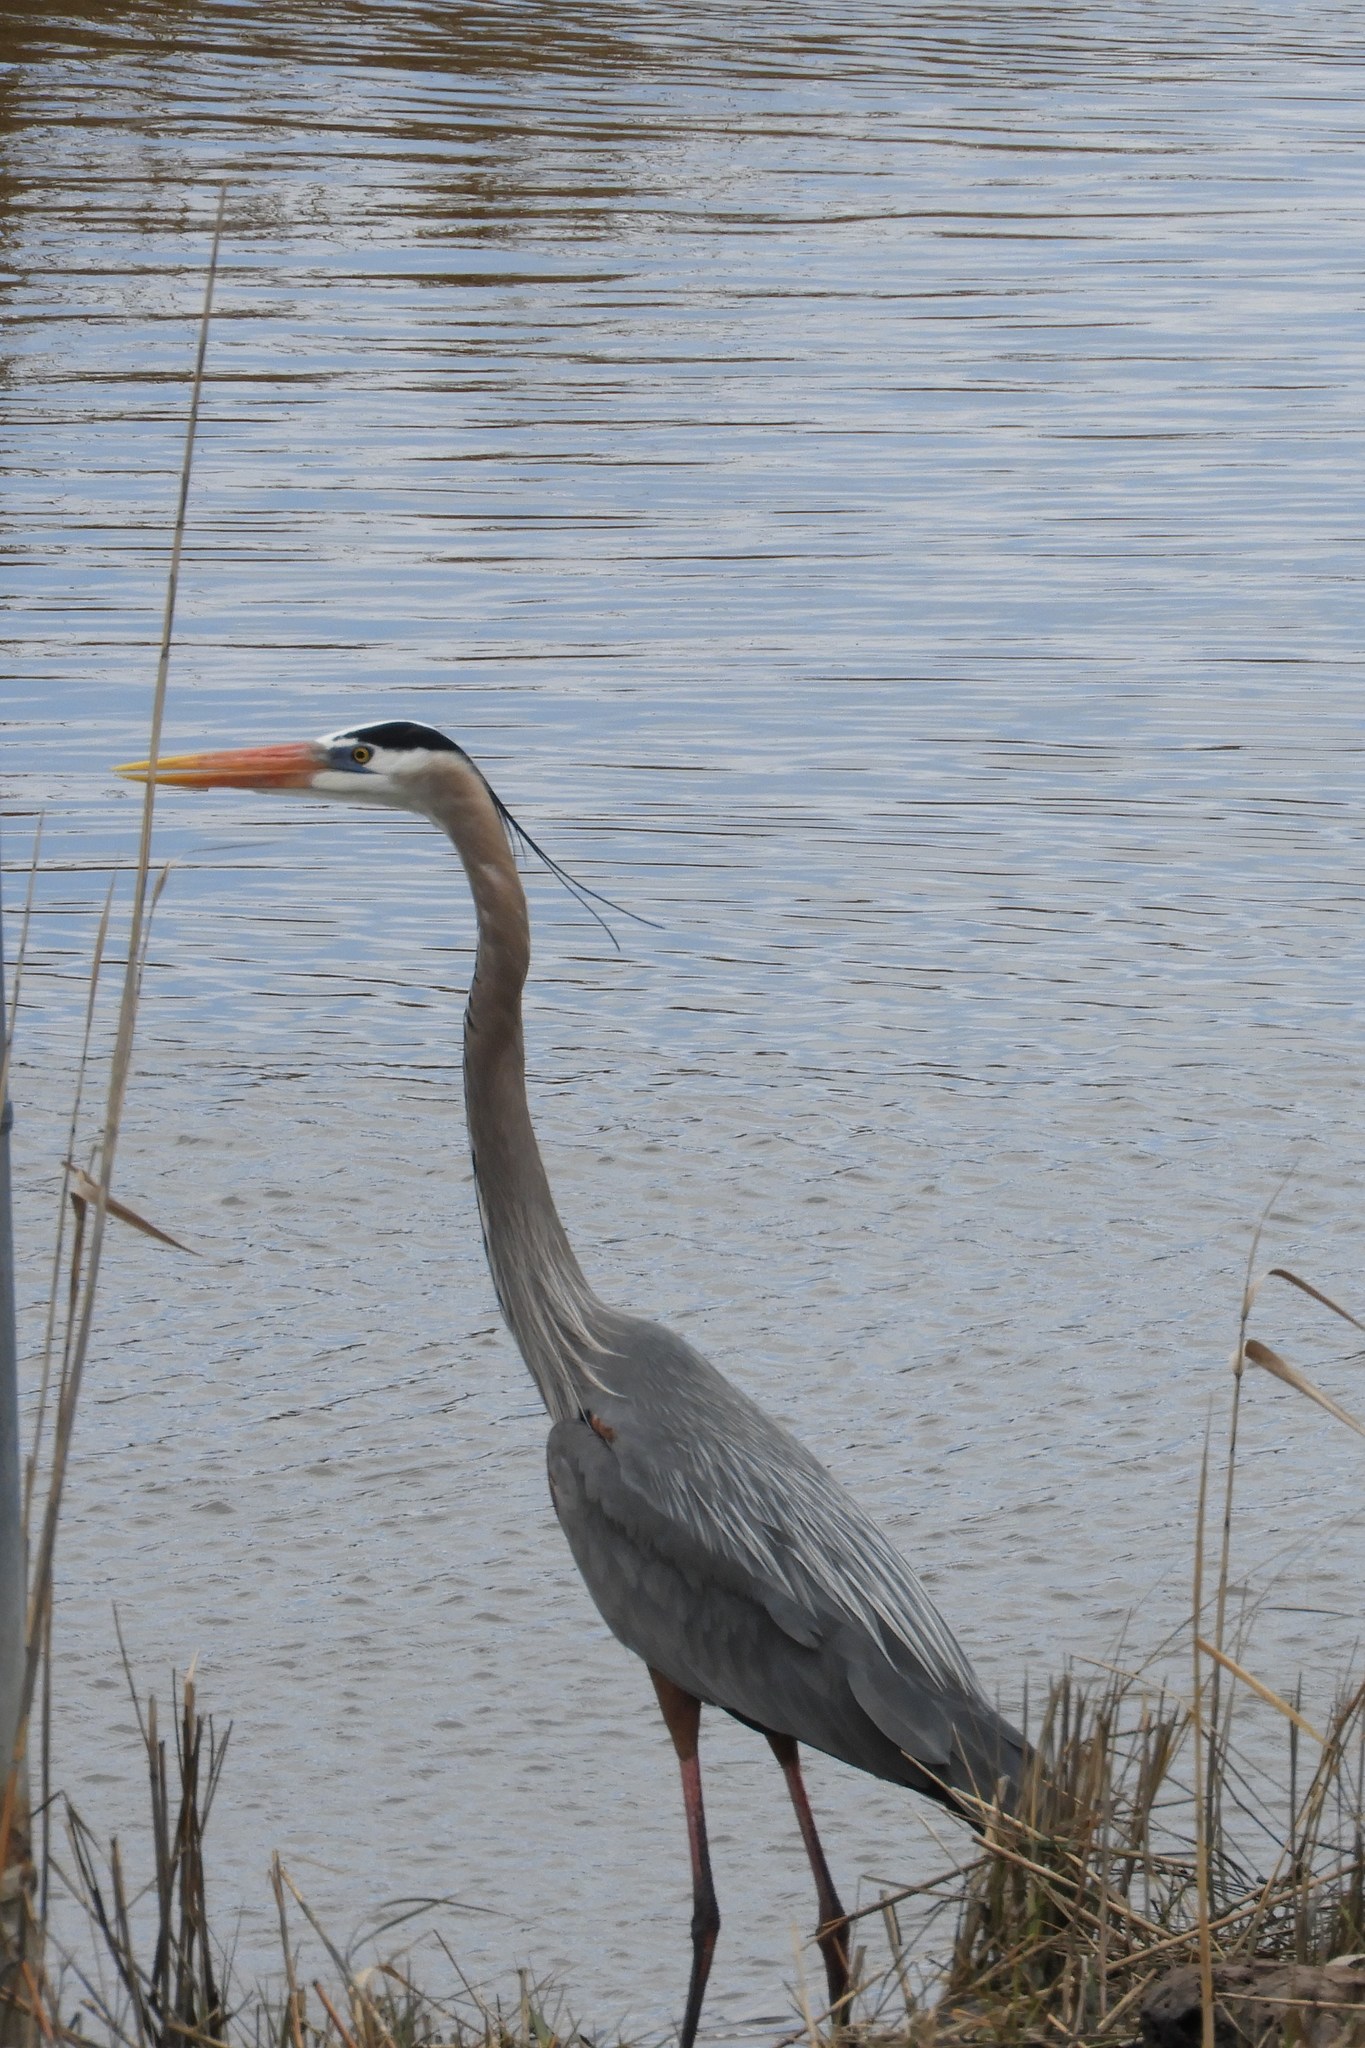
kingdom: Animalia
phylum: Chordata
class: Aves
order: Pelecaniformes
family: Ardeidae
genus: Ardea
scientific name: Ardea herodias
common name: Great blue heron
